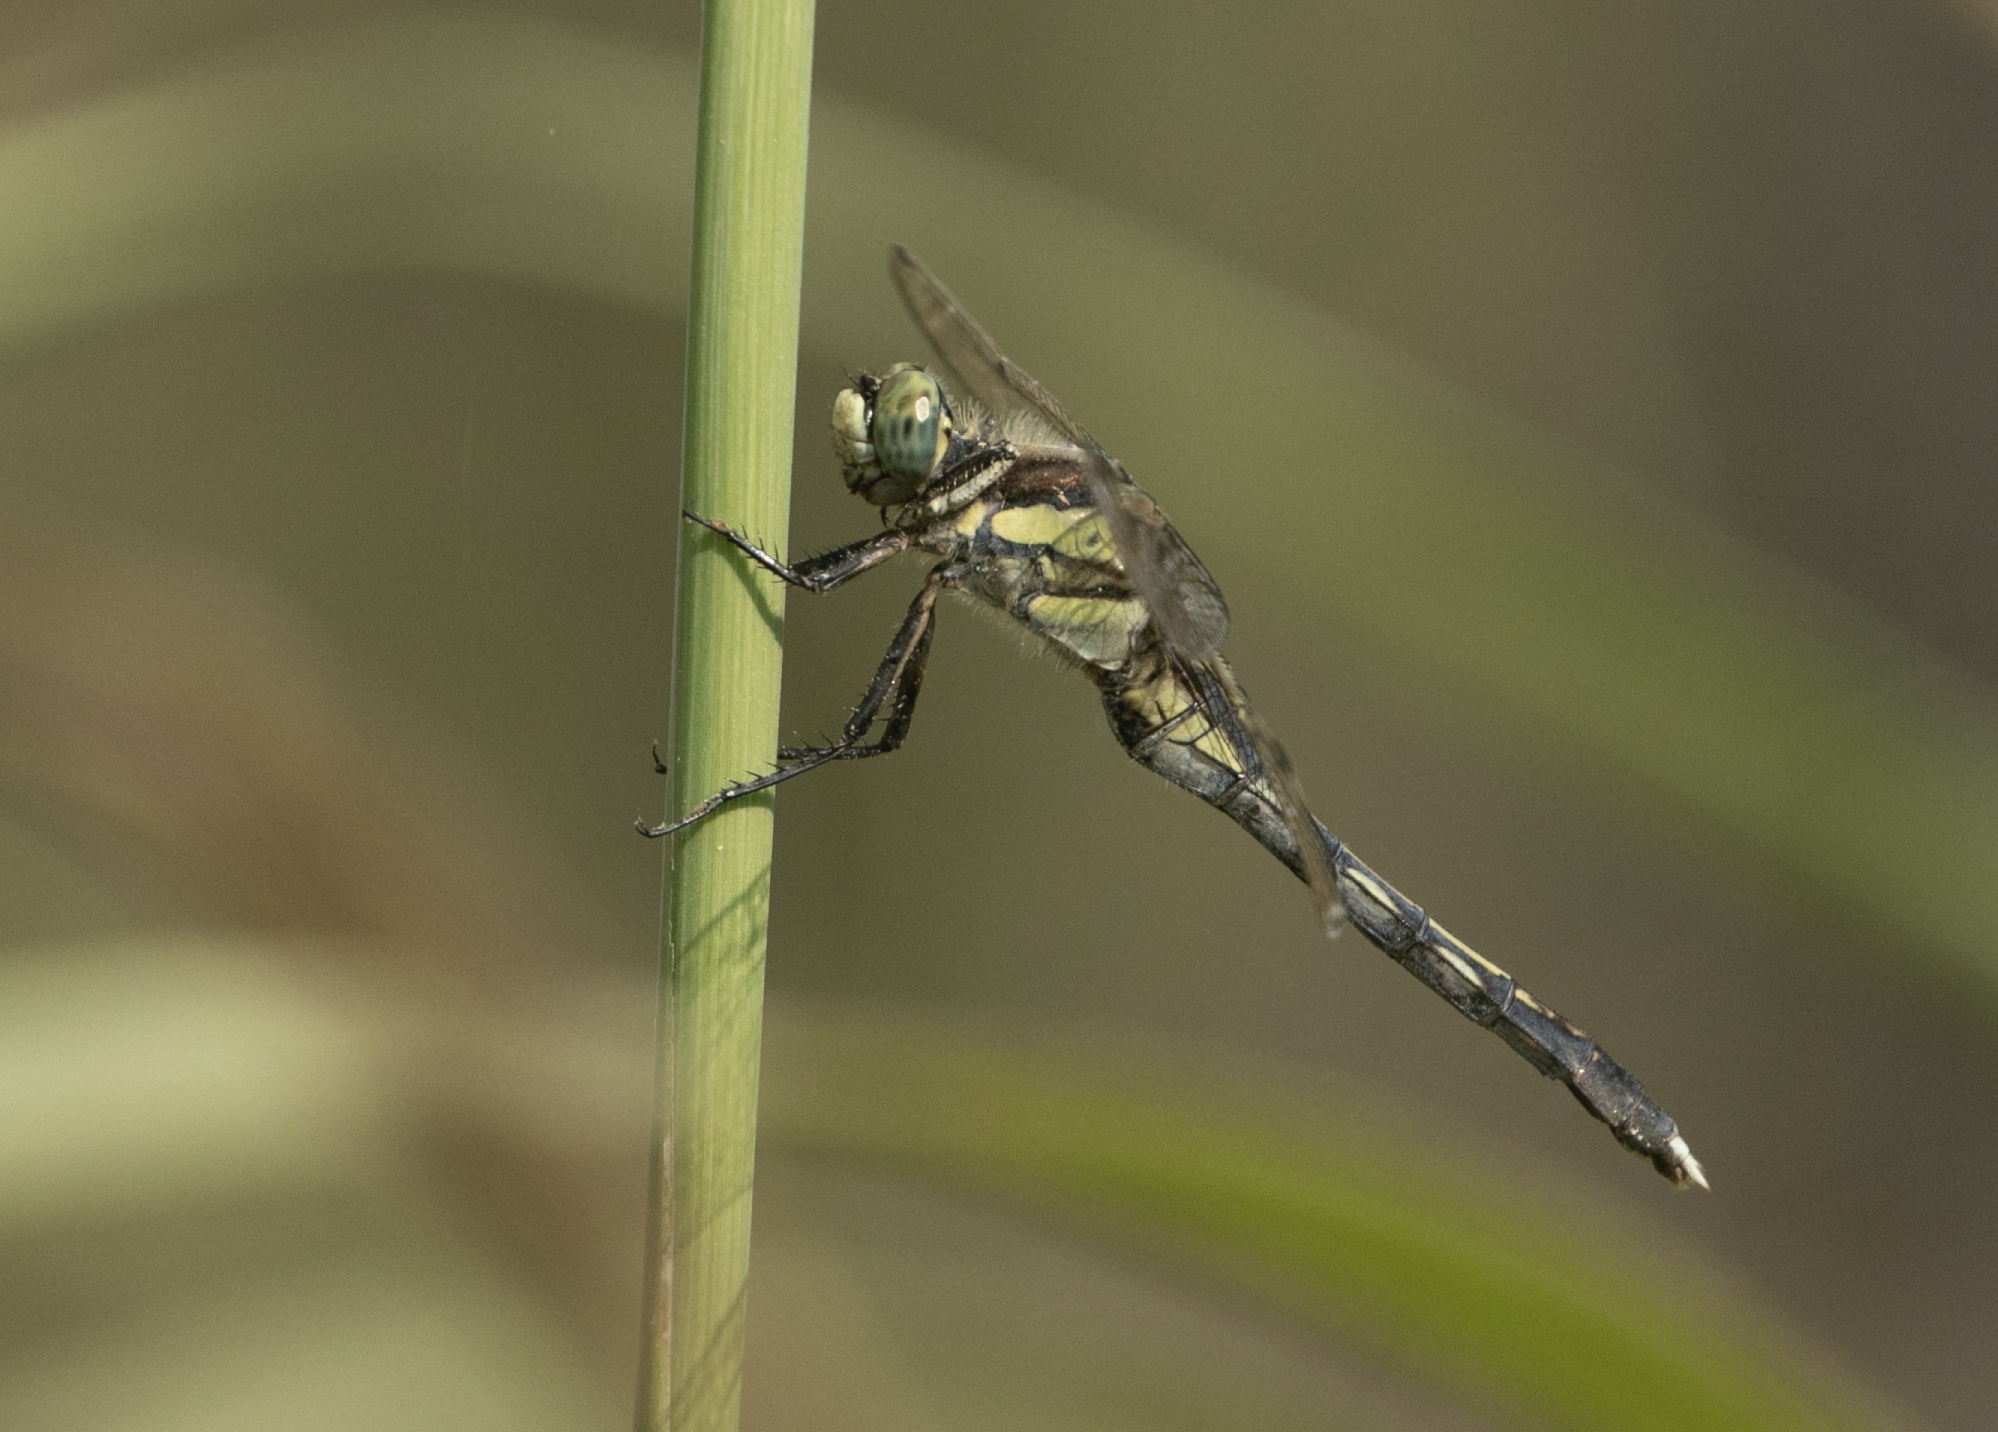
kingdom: Animalia
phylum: Arthropoda
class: Insecta
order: Odonata
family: Libellulidae
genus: Orthetrum
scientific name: Orthetrum albistylum
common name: White-tailed skimmer
